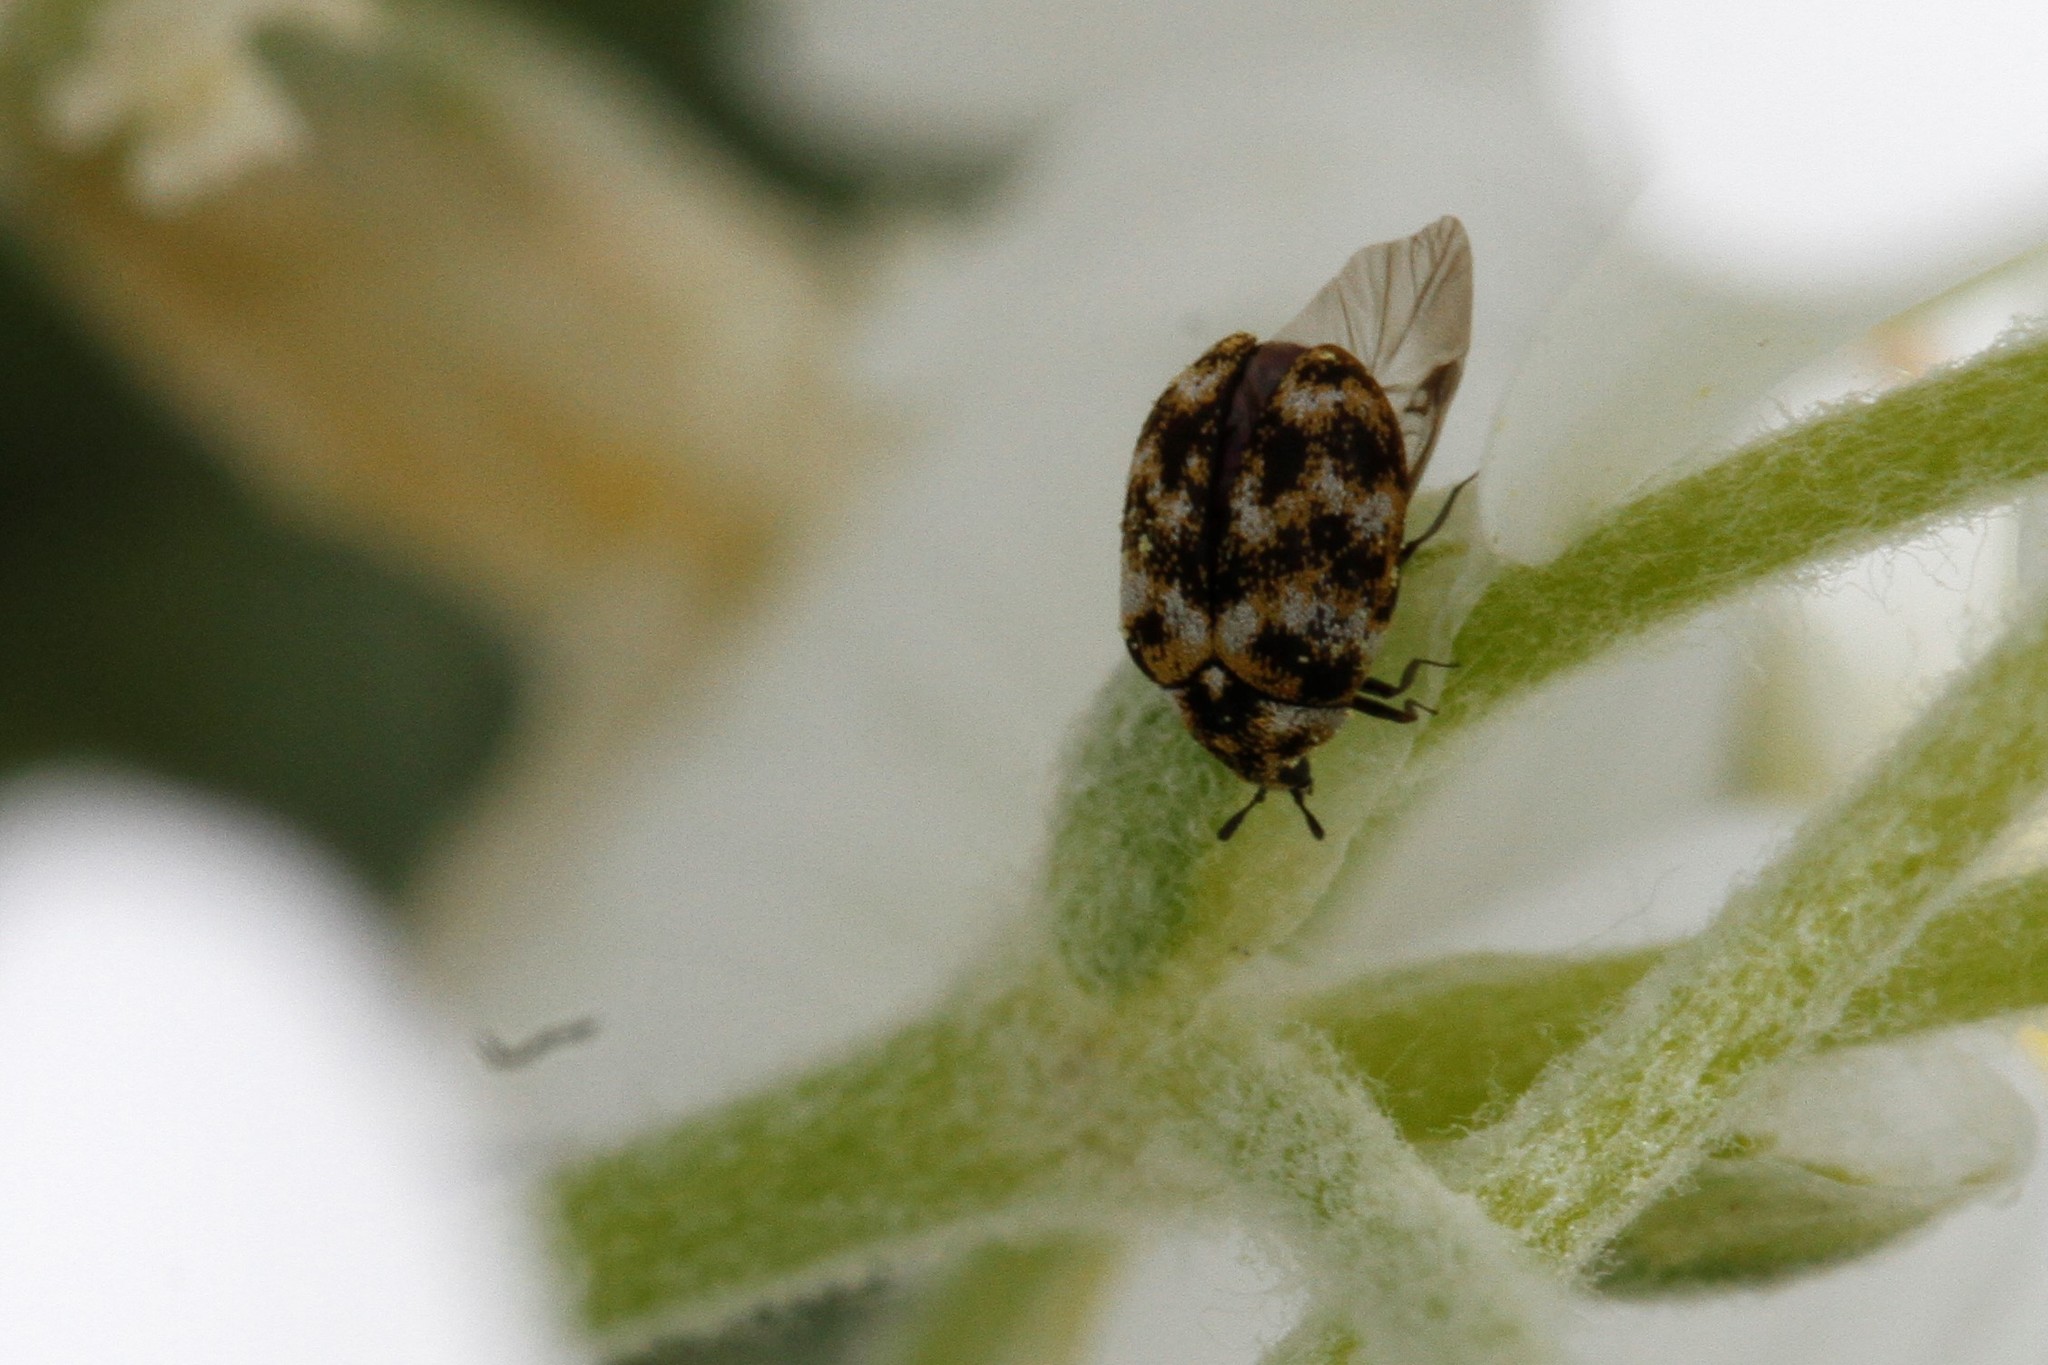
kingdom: Animalia
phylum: Arthropoda
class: Insecta
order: Coleoptera
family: Dermestidae
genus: Anthrenus
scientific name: Anthrenus verbasci
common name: Varied carpet beetle
